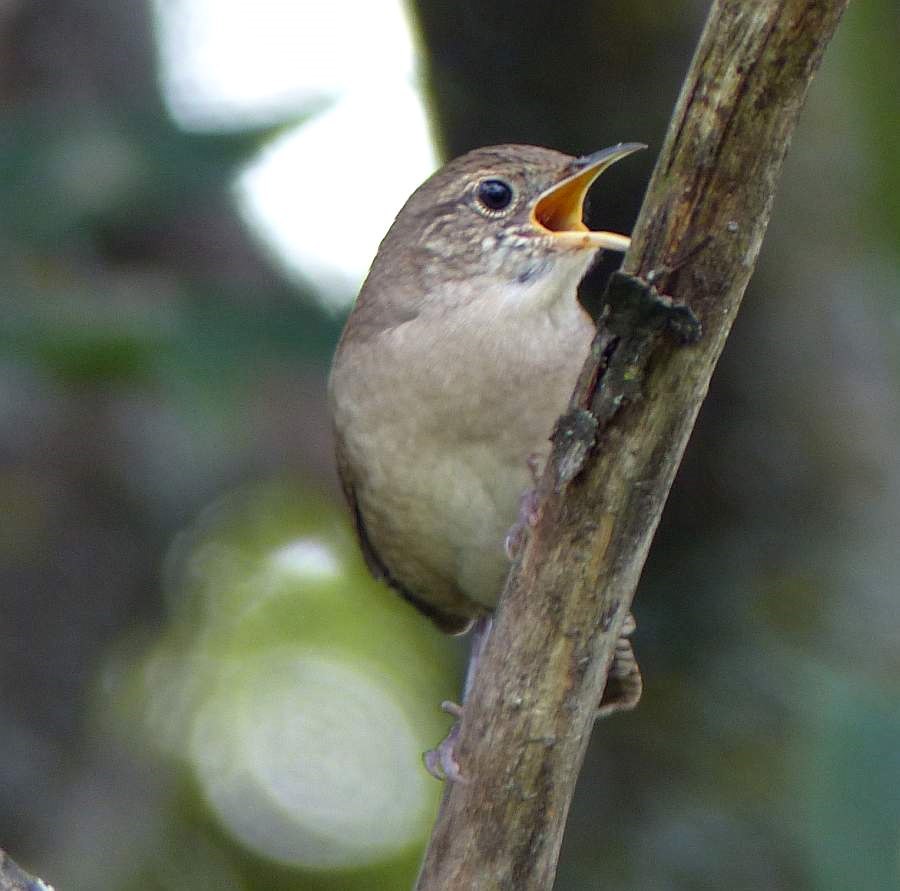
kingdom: Animalia
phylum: Chordata
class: Aves
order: Passeriformes
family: Troglodytidae
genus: Troglodytes
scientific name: Troglodytes aedon
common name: House wren
